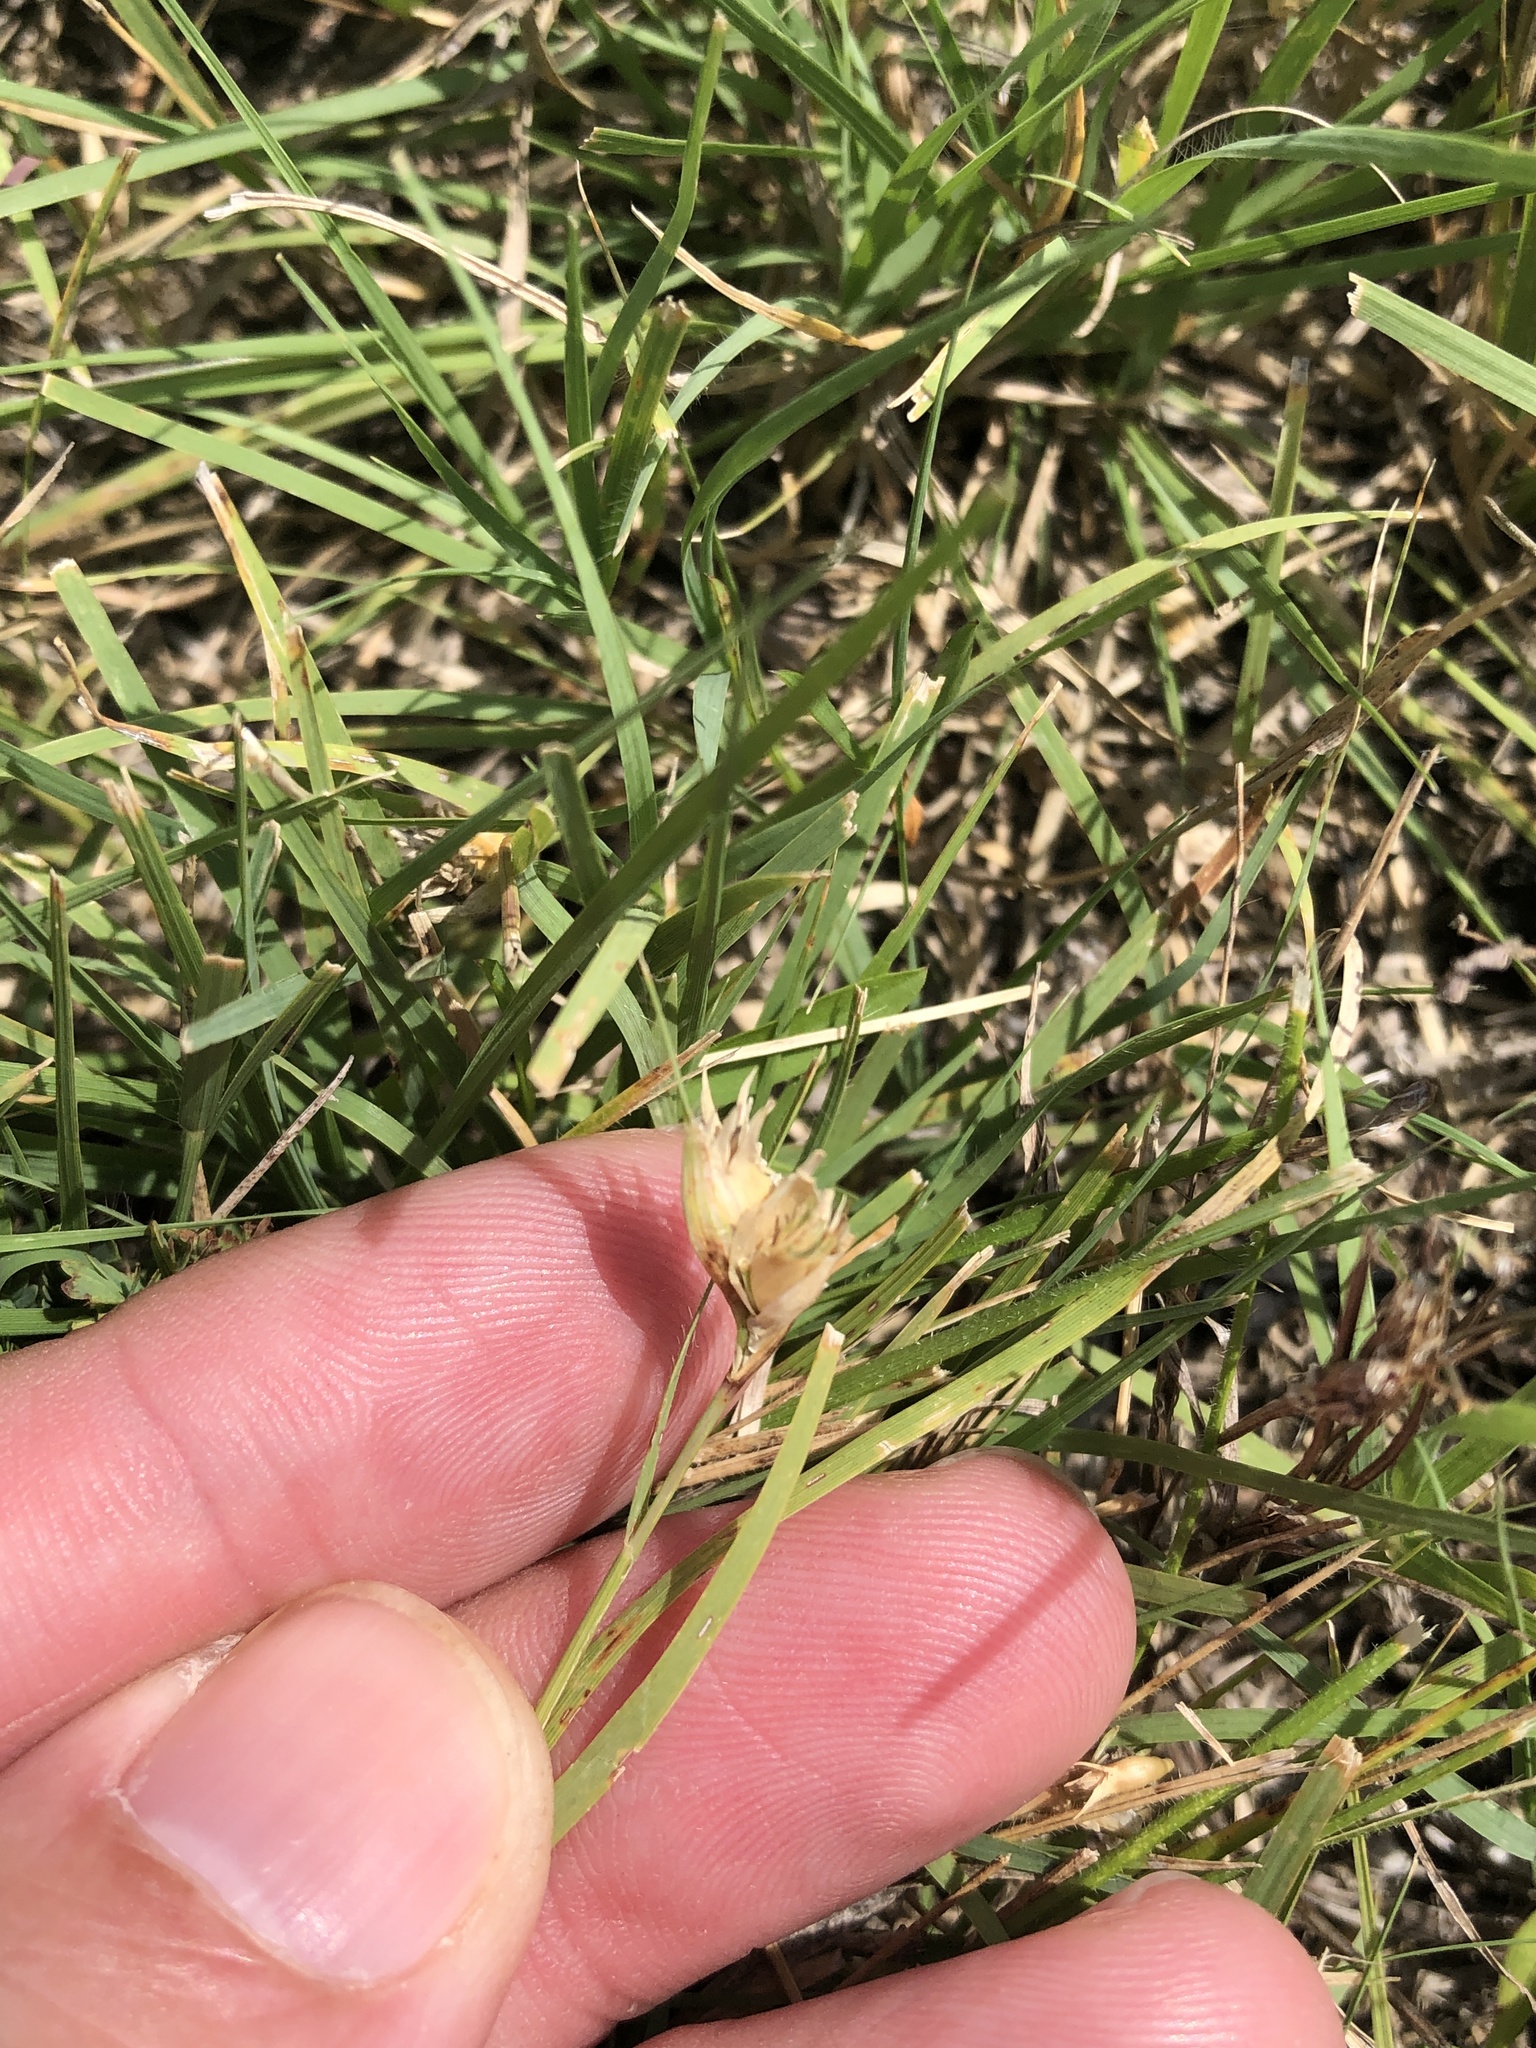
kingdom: Plantae
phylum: Tracheophyta
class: Liliopsida
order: Poales
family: Poaceae
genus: Bouteloua
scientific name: Bouteloua dactyloides
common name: Buffalo grass
